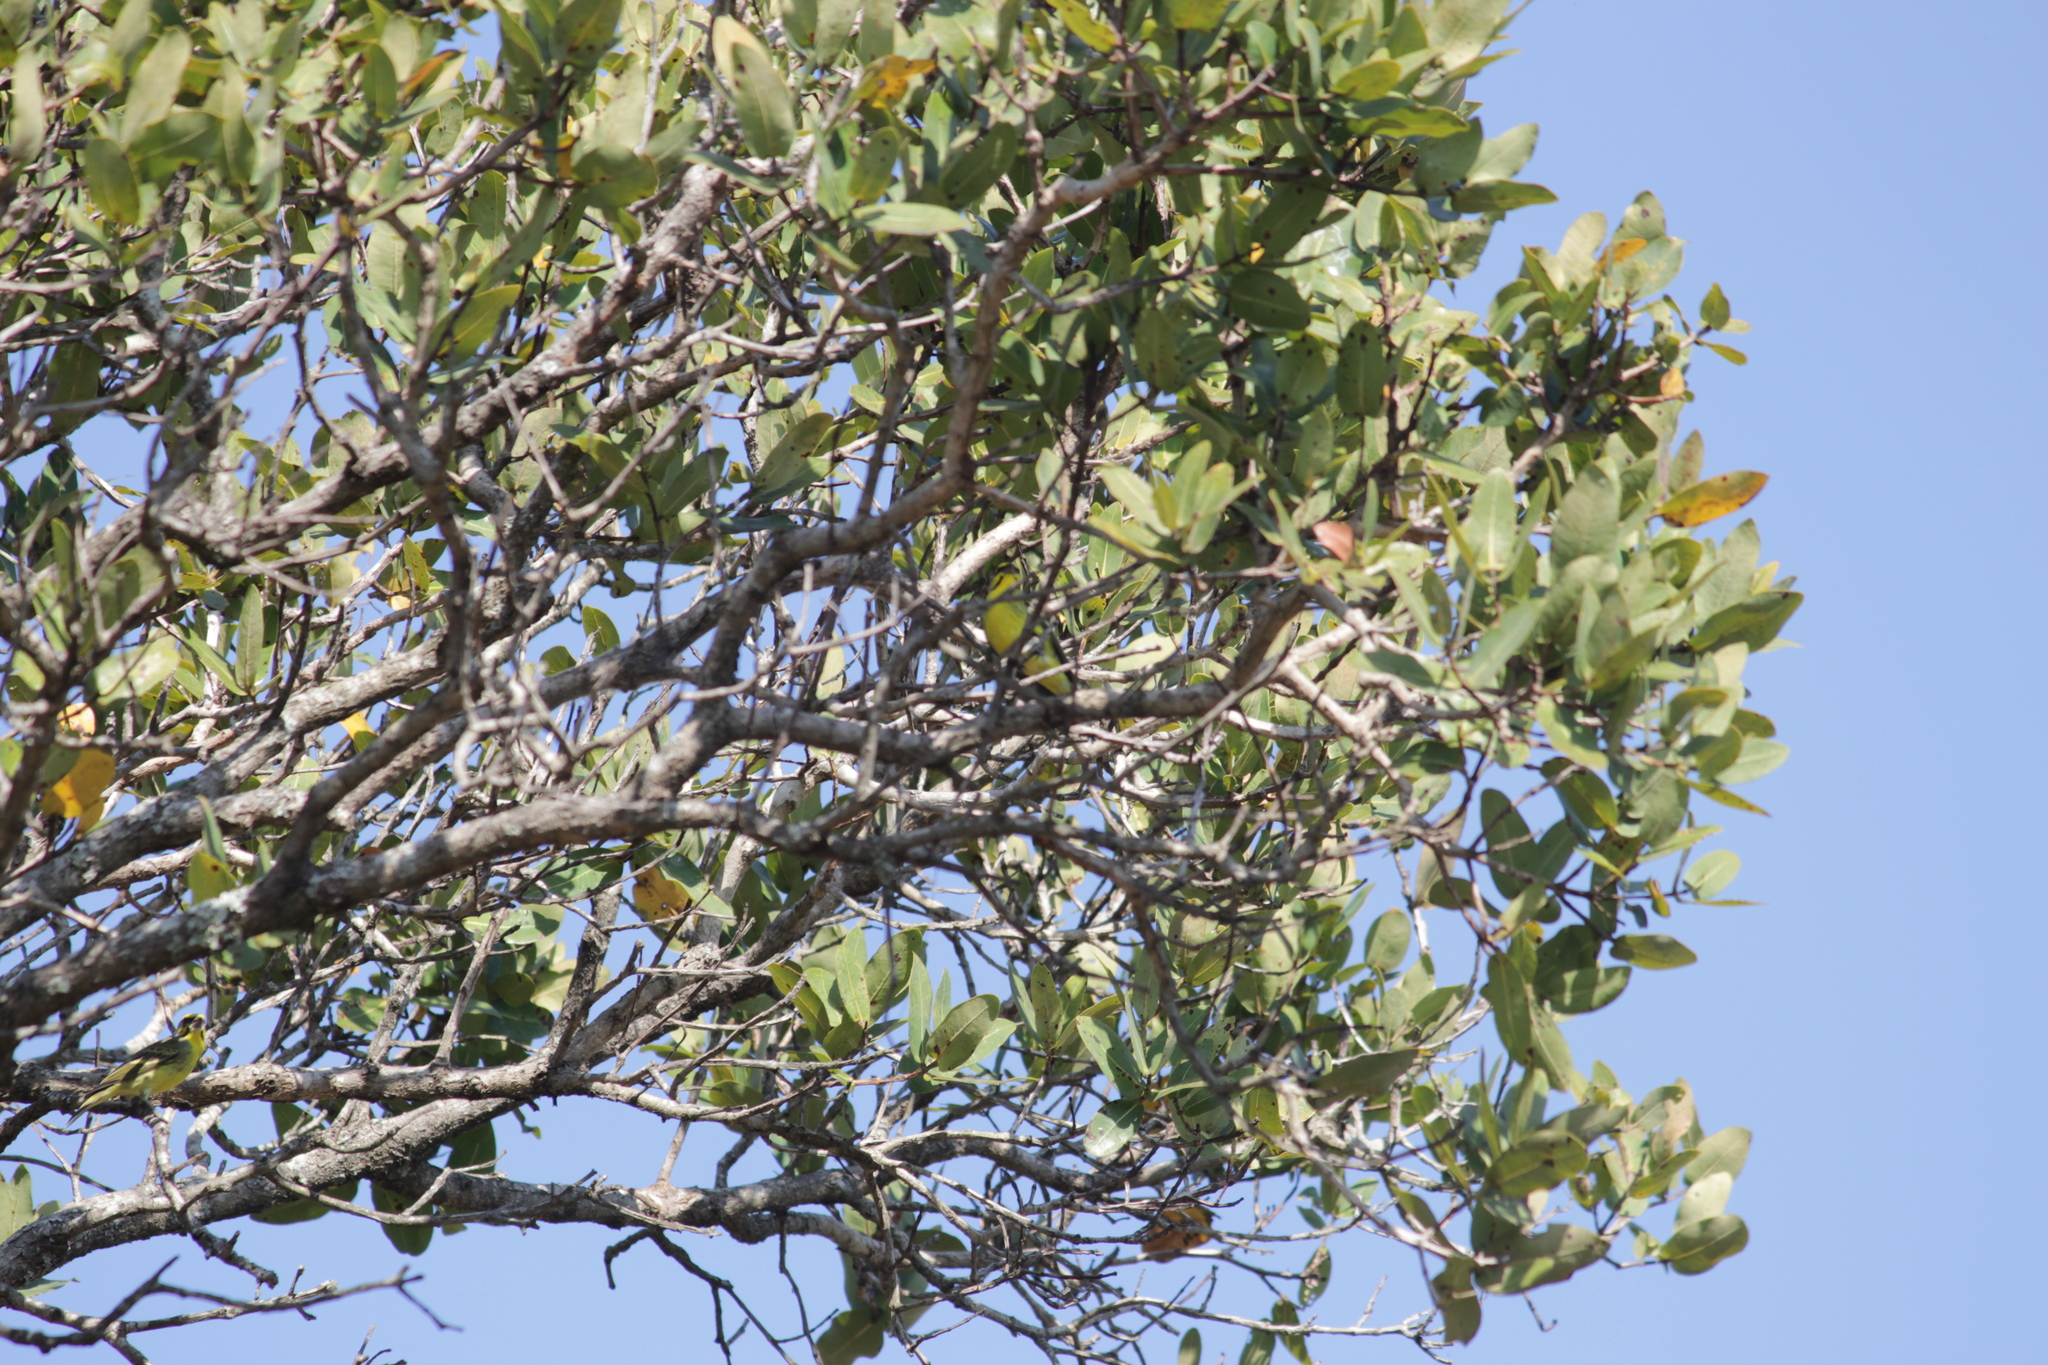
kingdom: Animalia
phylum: Chordata
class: Aves
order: Passeriformes
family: Fringillidae
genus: Crithagra
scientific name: Crithagra mozambica
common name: Yellow-fronted canary
